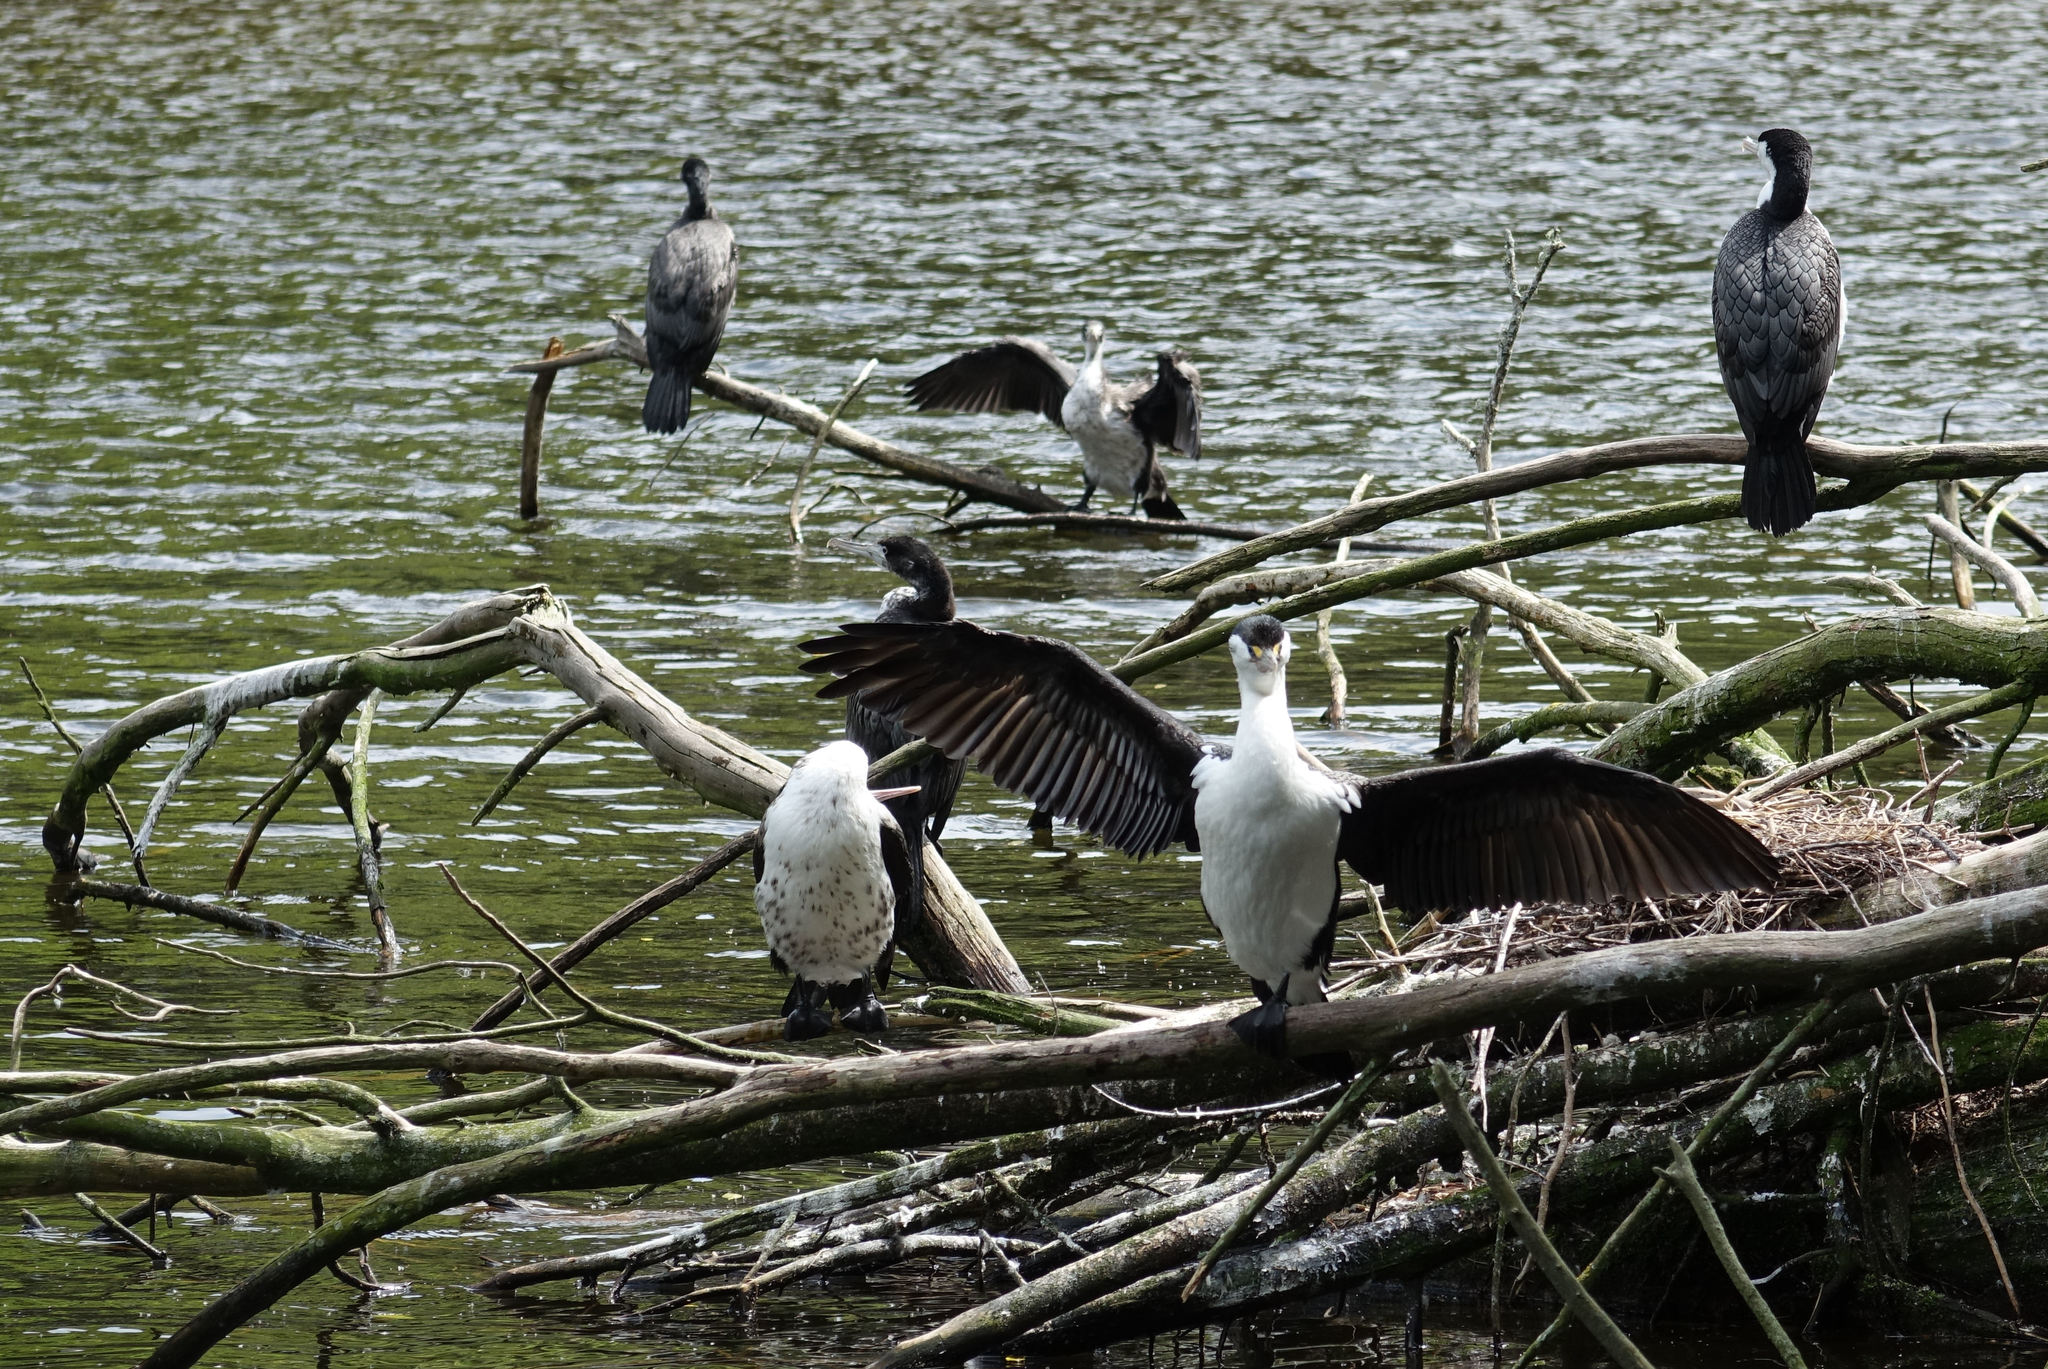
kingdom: Animalia
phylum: Chordata
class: Aves
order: Suliformes
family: Phalacrocoracidae
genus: Phalacrocorax
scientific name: Phalacrocorax varius
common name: Pied cormorant
